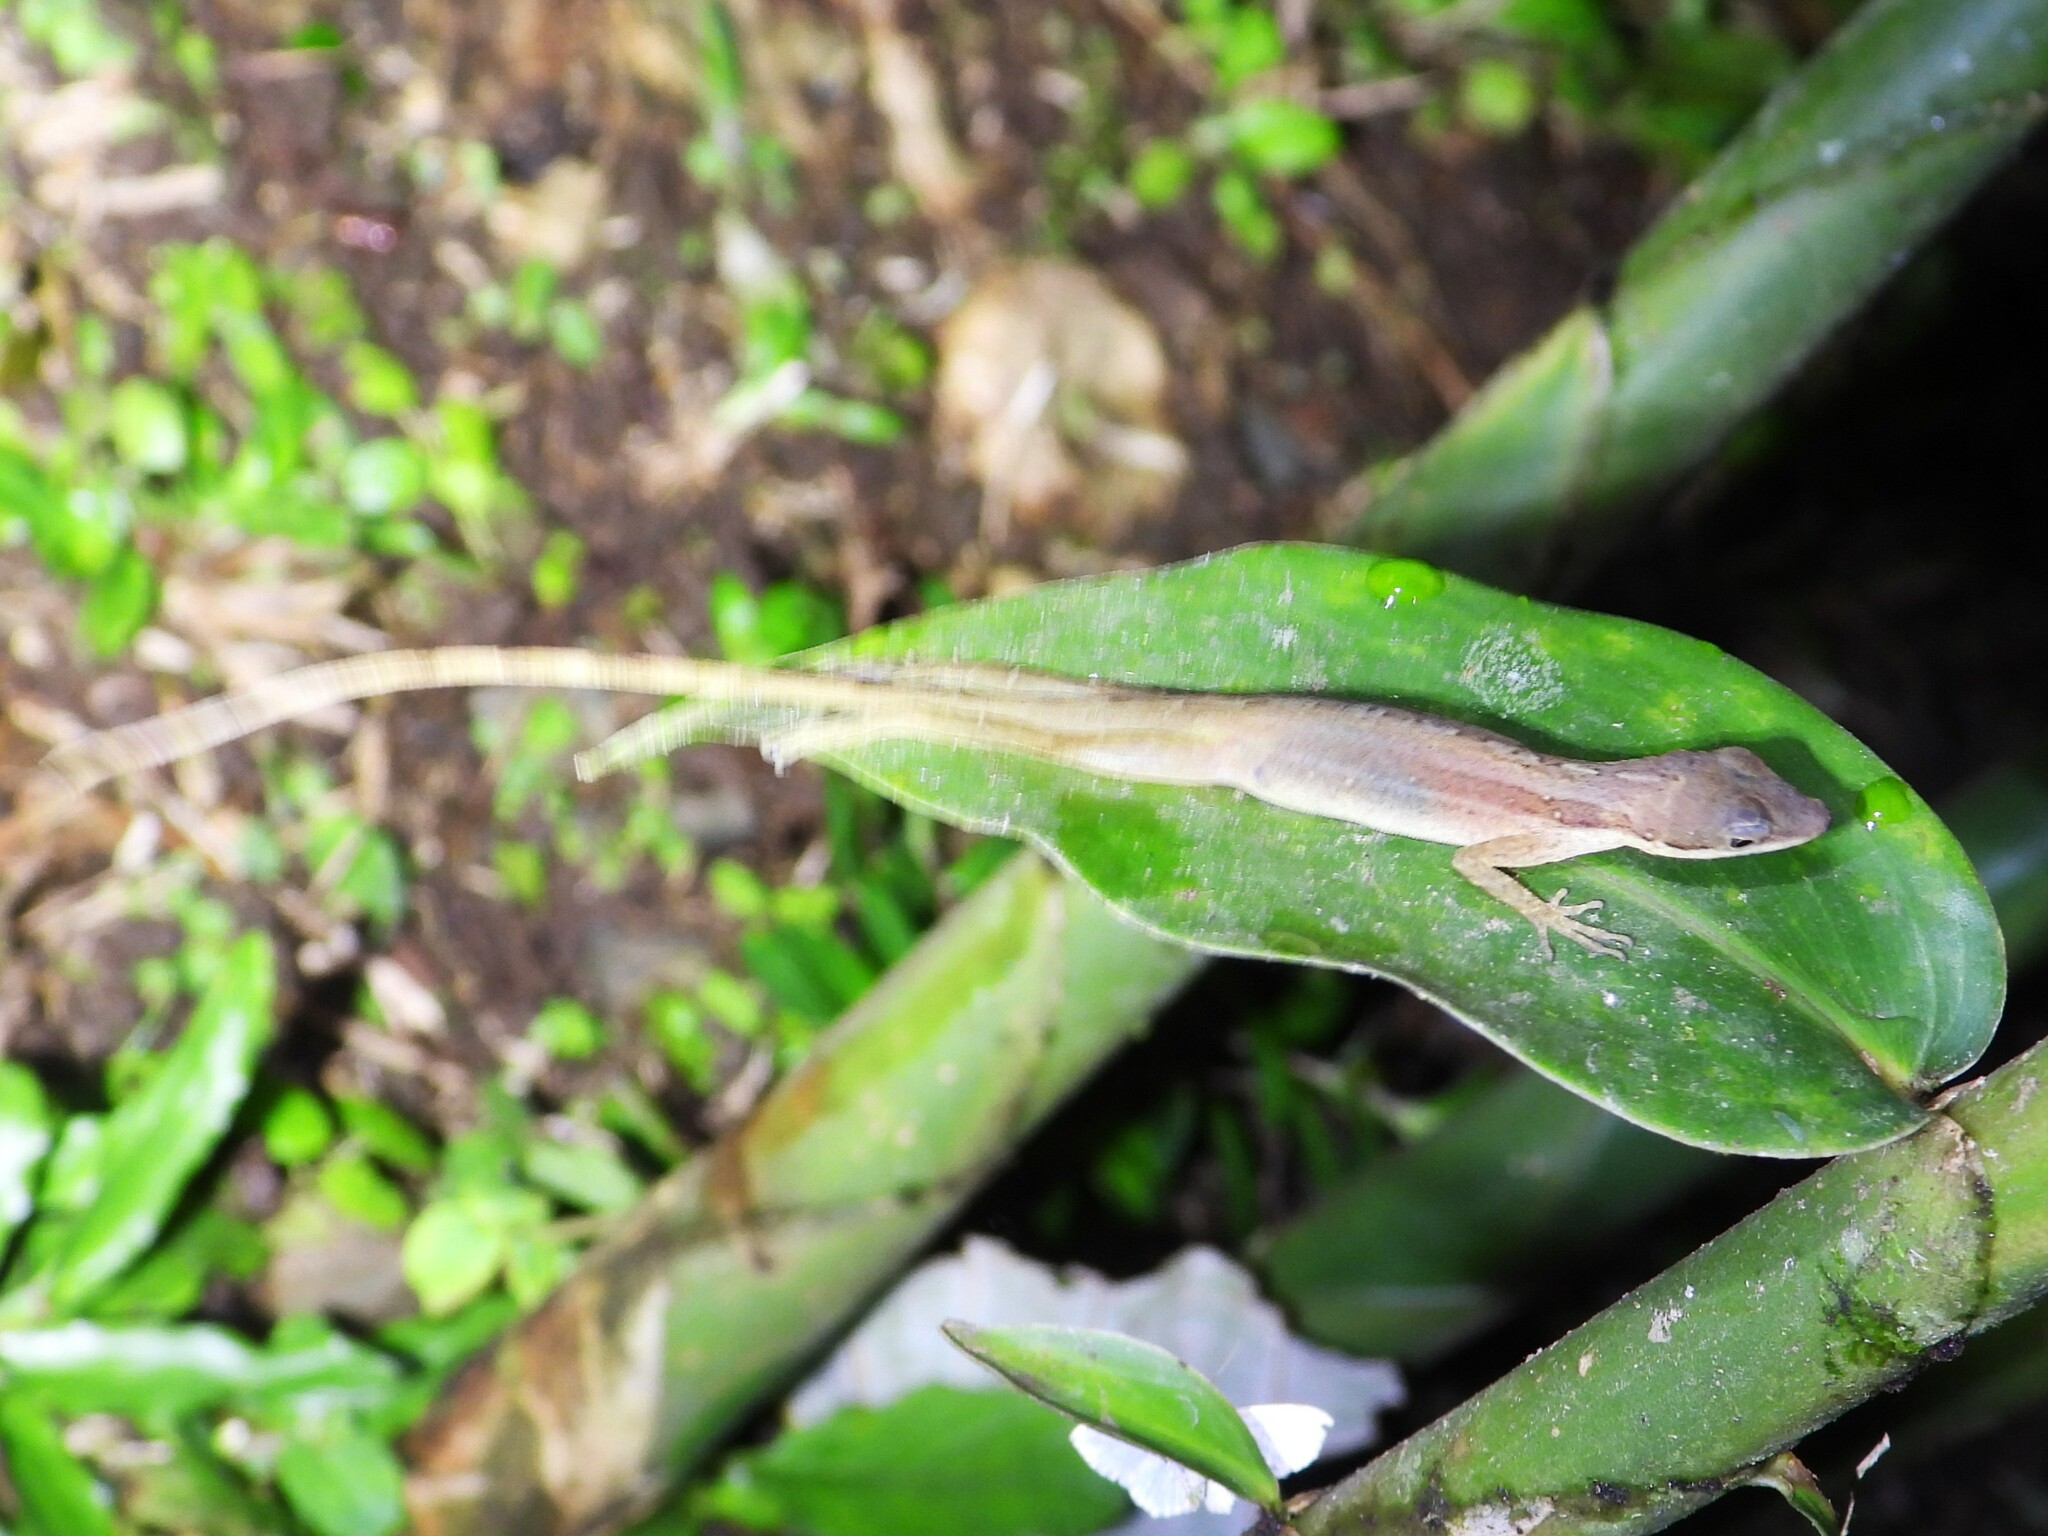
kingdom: Animalia
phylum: Chordata
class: Squamata
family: Dactyloidae
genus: Anolis
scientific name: Anolis limifrons
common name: Border anole
